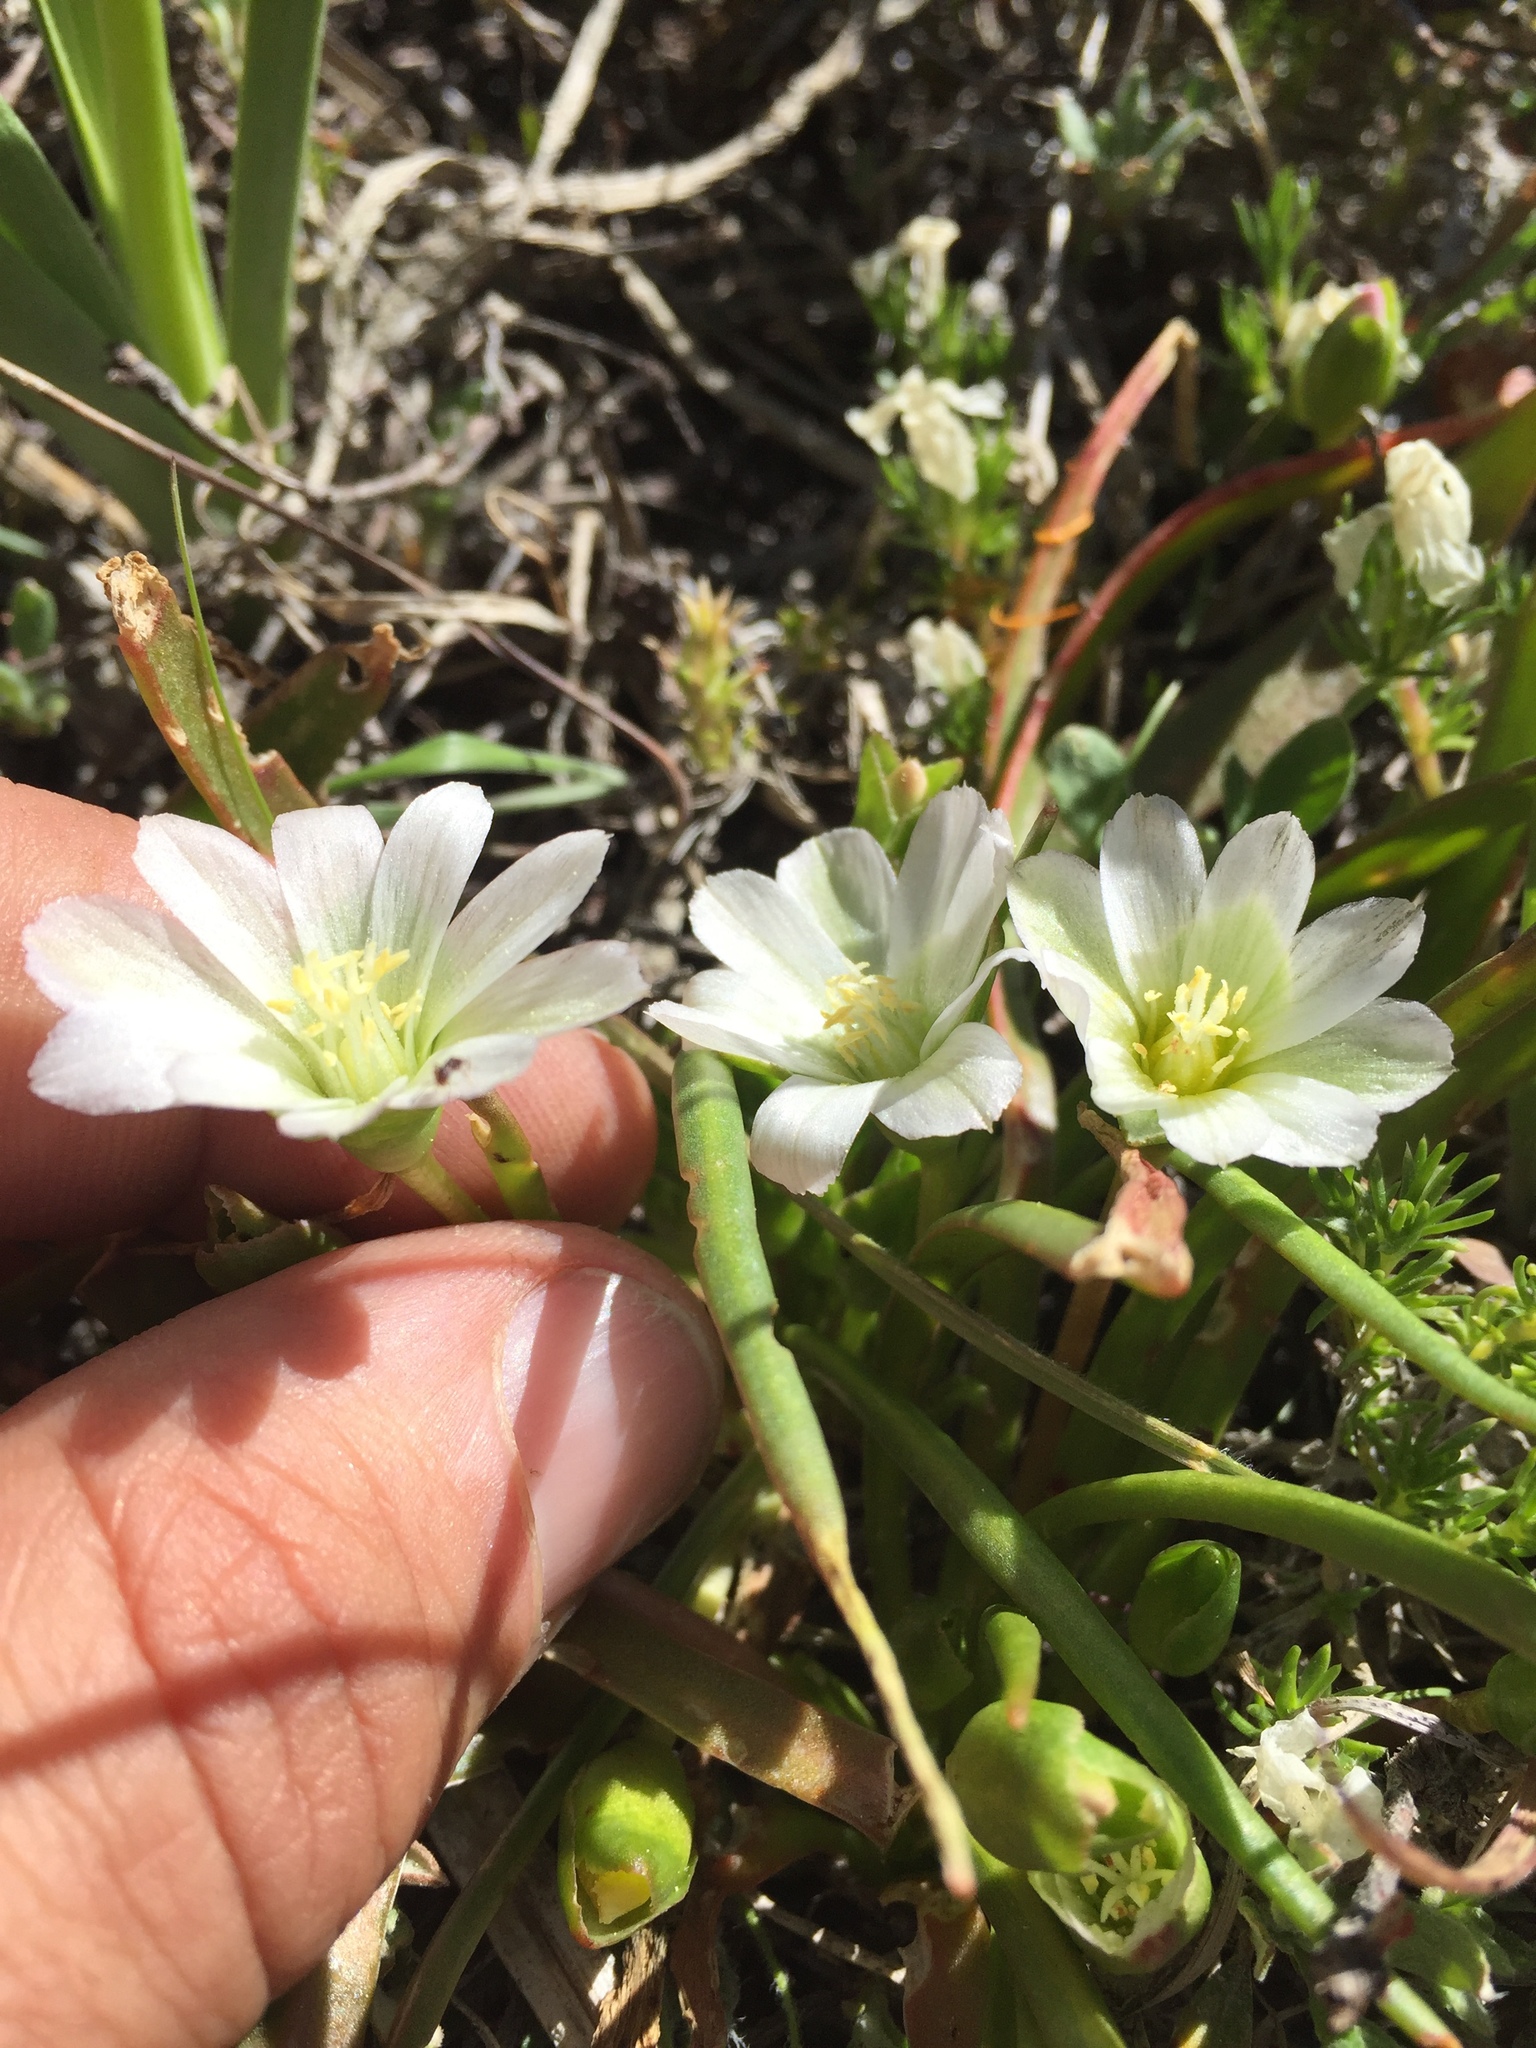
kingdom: Plantae
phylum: Tracheophyta
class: Magnoliopsida
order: Caryophyllales
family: Montiaceae
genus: Lewisia
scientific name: Lewisia nevadensis
